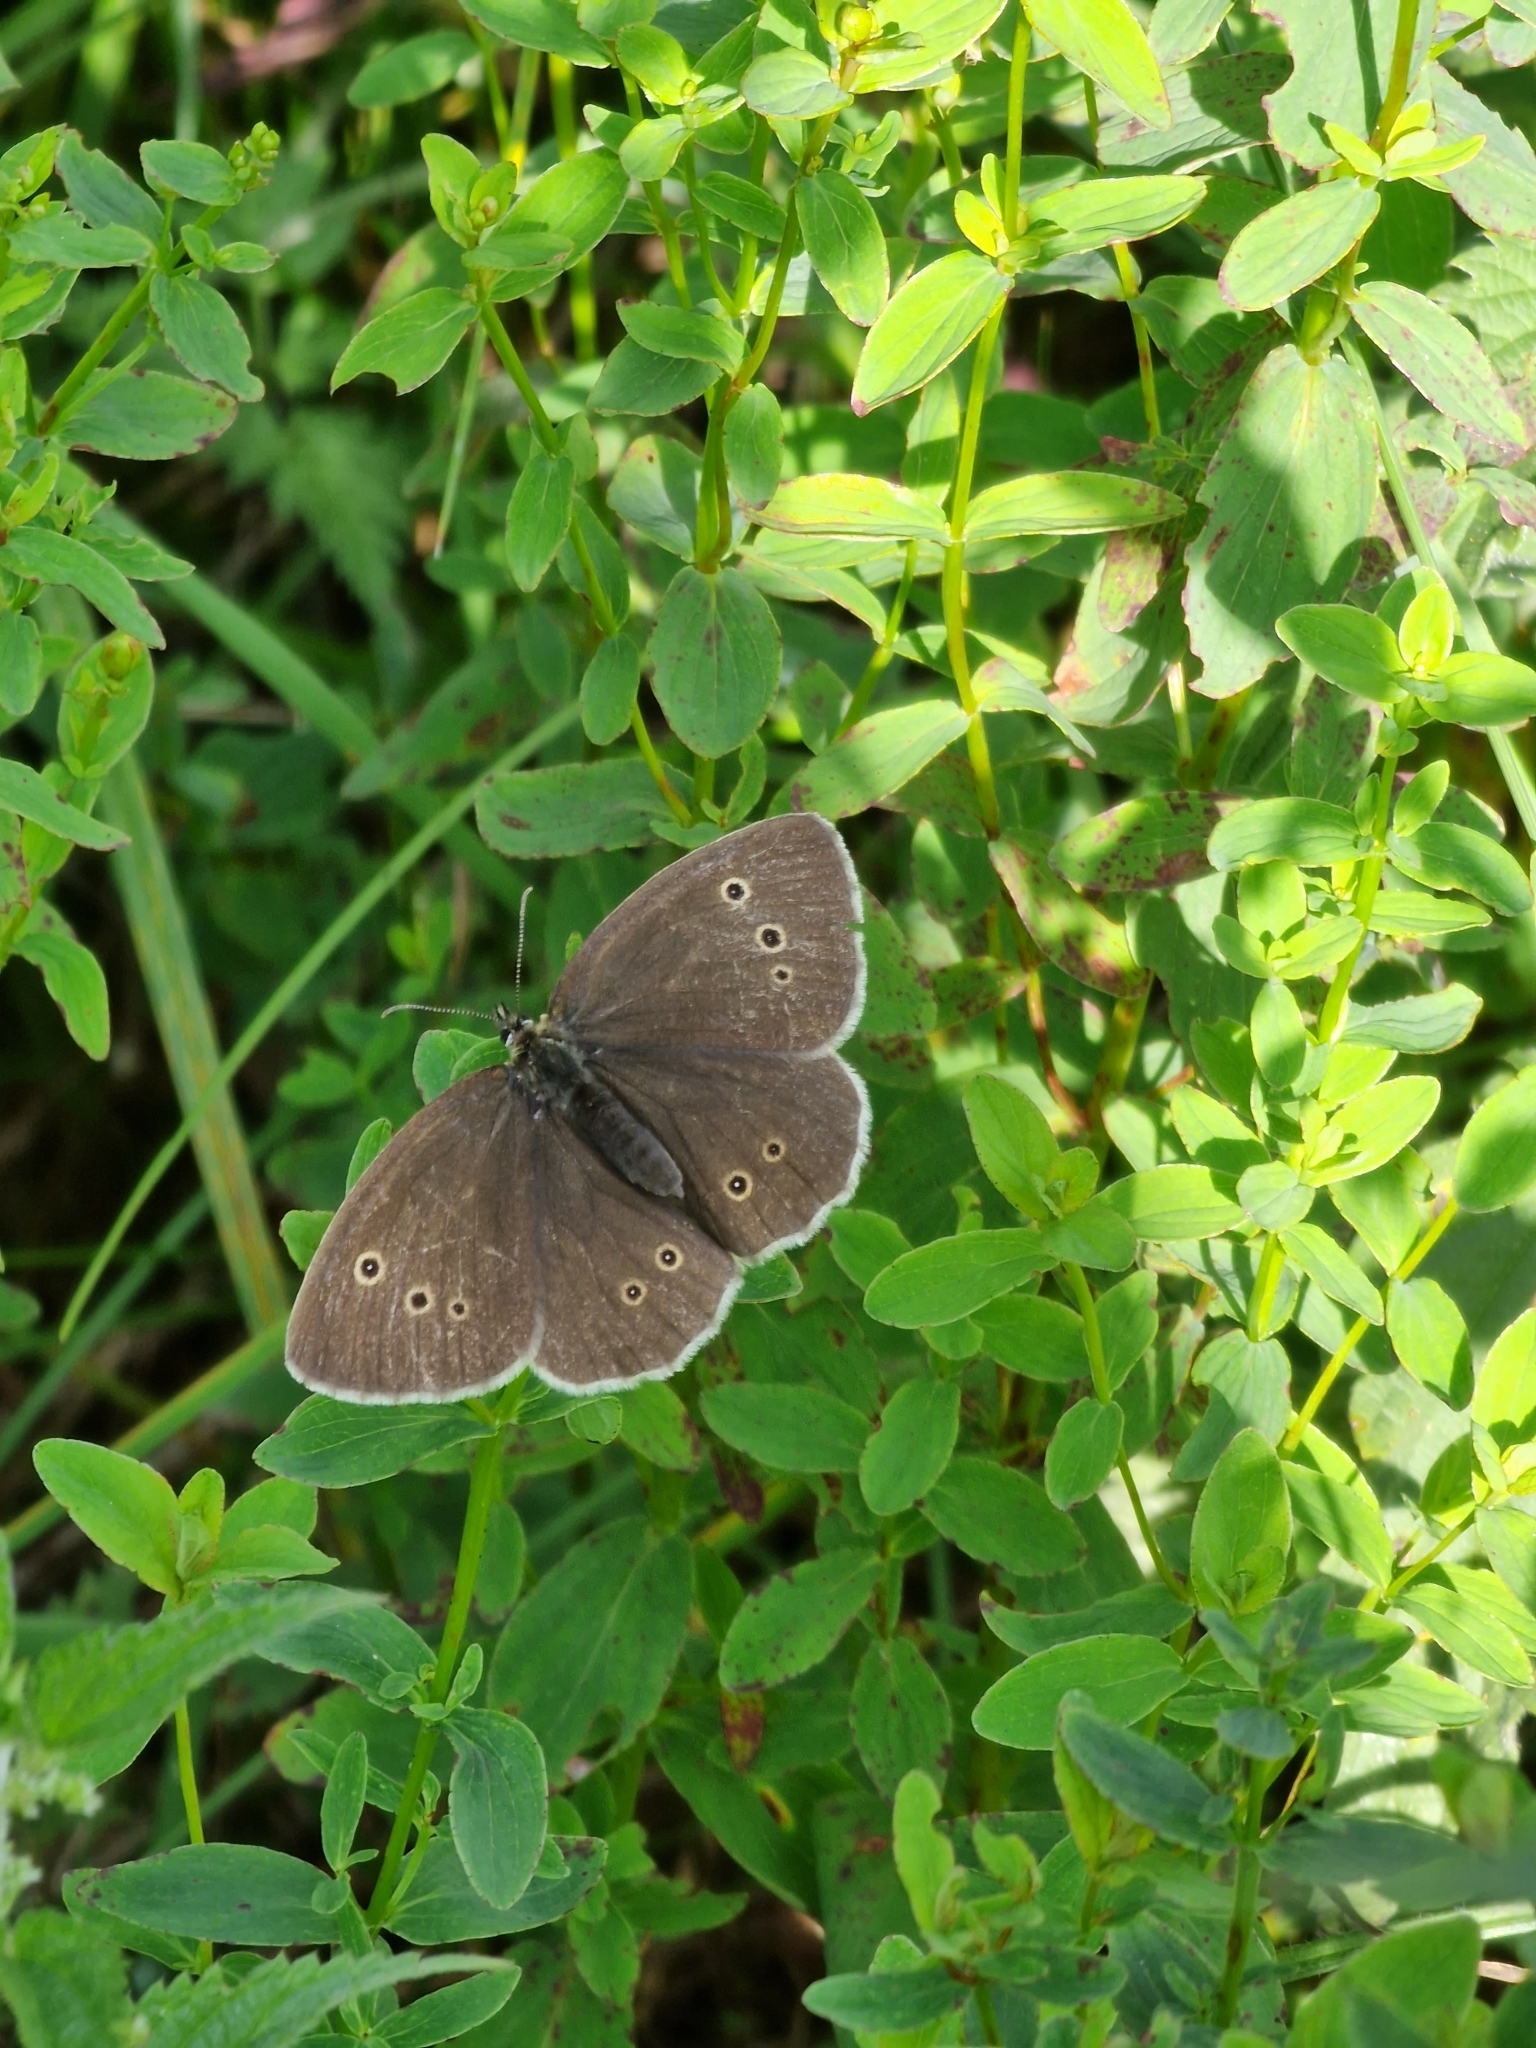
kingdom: Animalia
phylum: Arthropoda
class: Insecta
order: Lepidoptera
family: Nymphalidae
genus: Aphantopus
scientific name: Aphantopus hyperantus
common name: Ringlet
